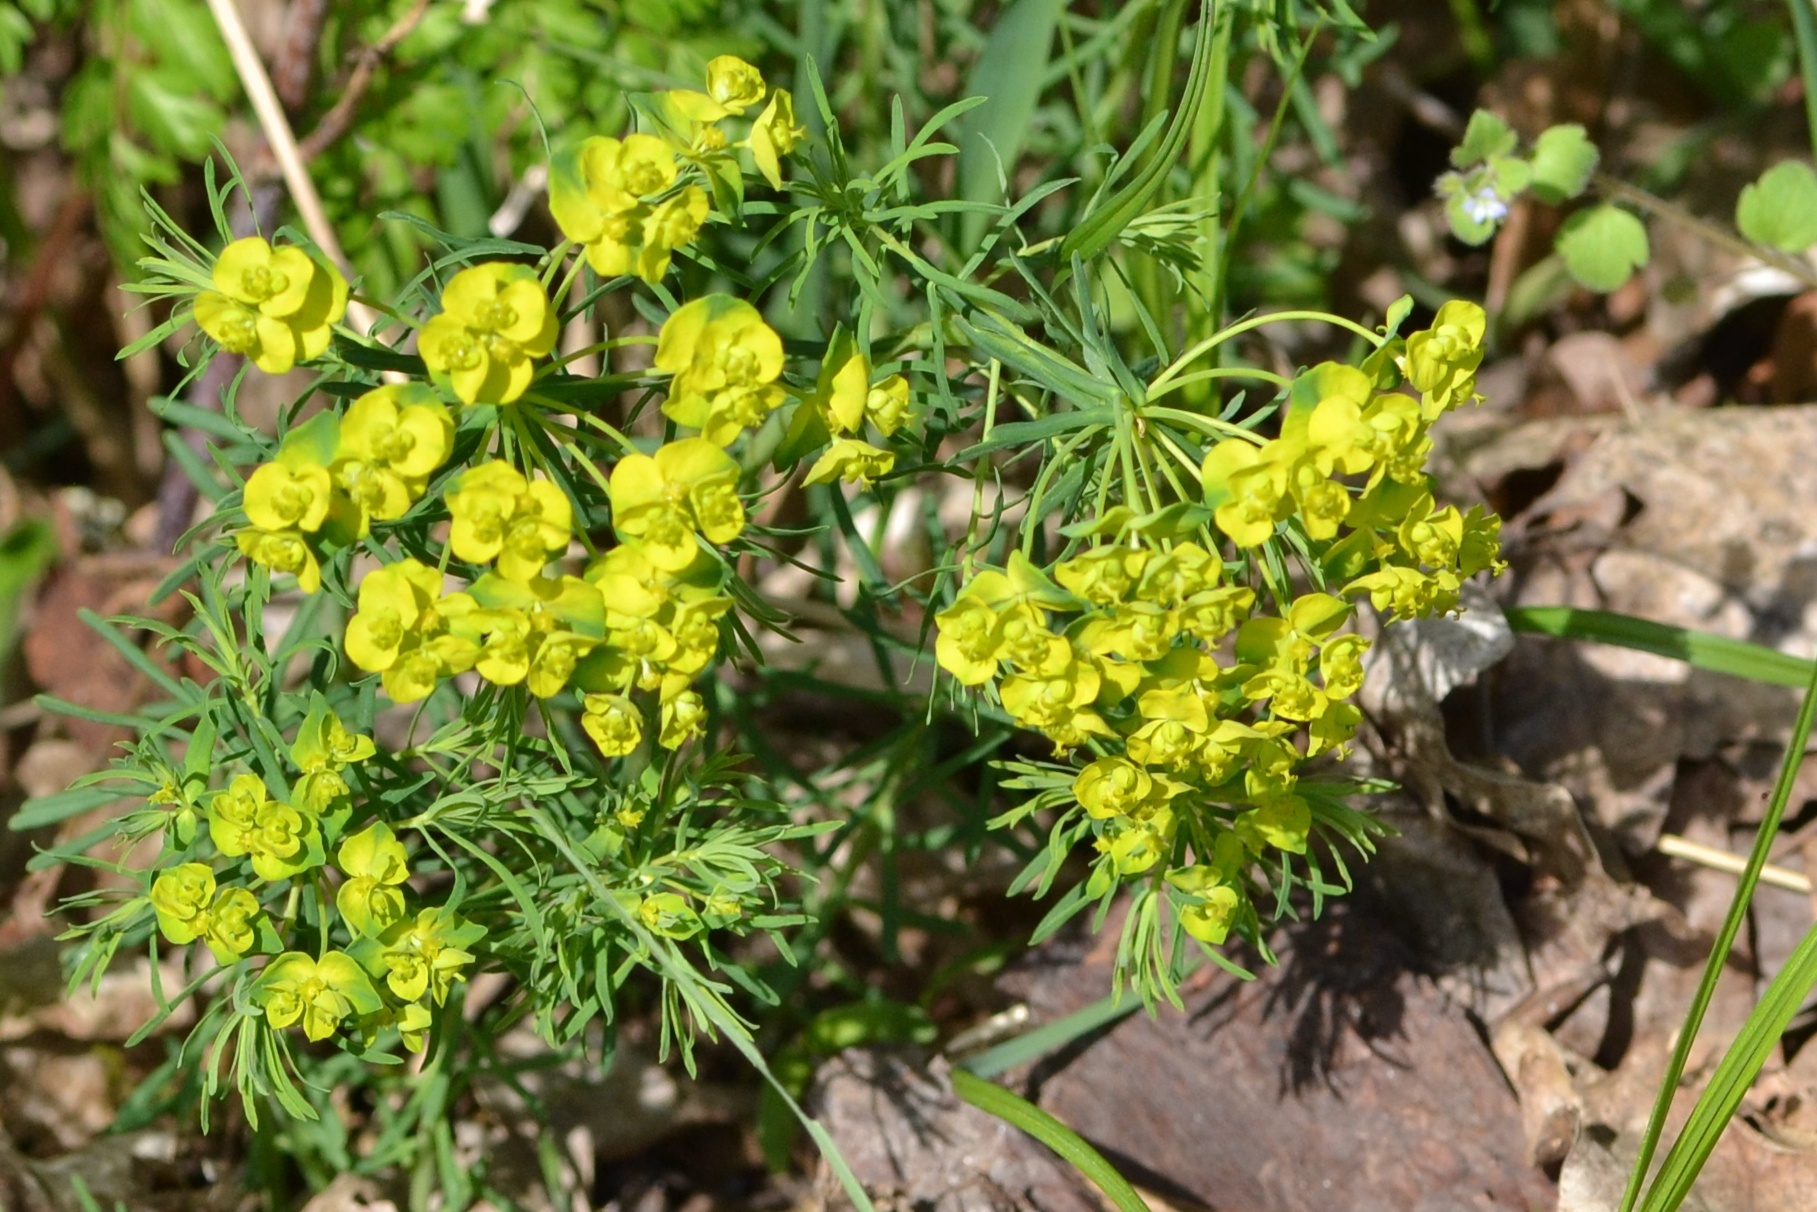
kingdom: Plantae
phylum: Tracheophyta
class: Magnoliopsida
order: Malpighiales
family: Euphorbiaceae
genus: Euphorbia
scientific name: Euphorbia cyparissias
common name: Cypress spurge
